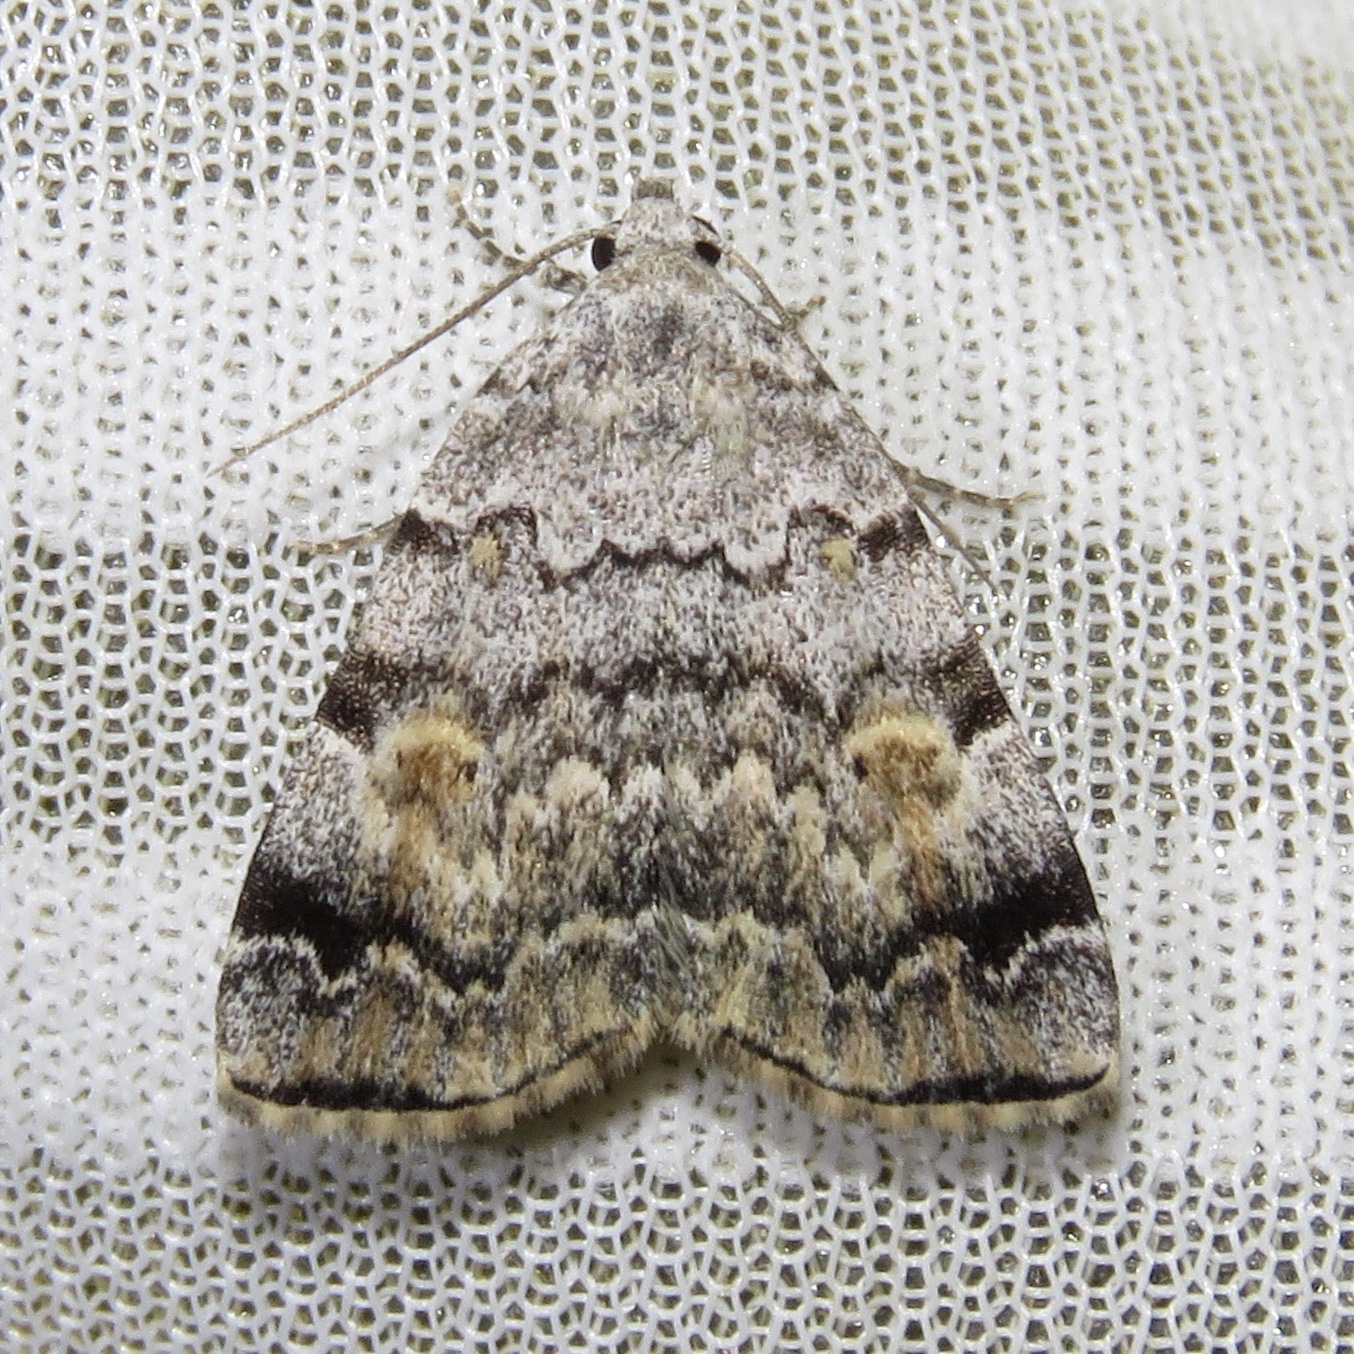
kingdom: Animalia
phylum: Arthropoda
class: Insecta
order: Lepidoptera
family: Erebidae
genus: Idia
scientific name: Idia americalis
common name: American idia moth
